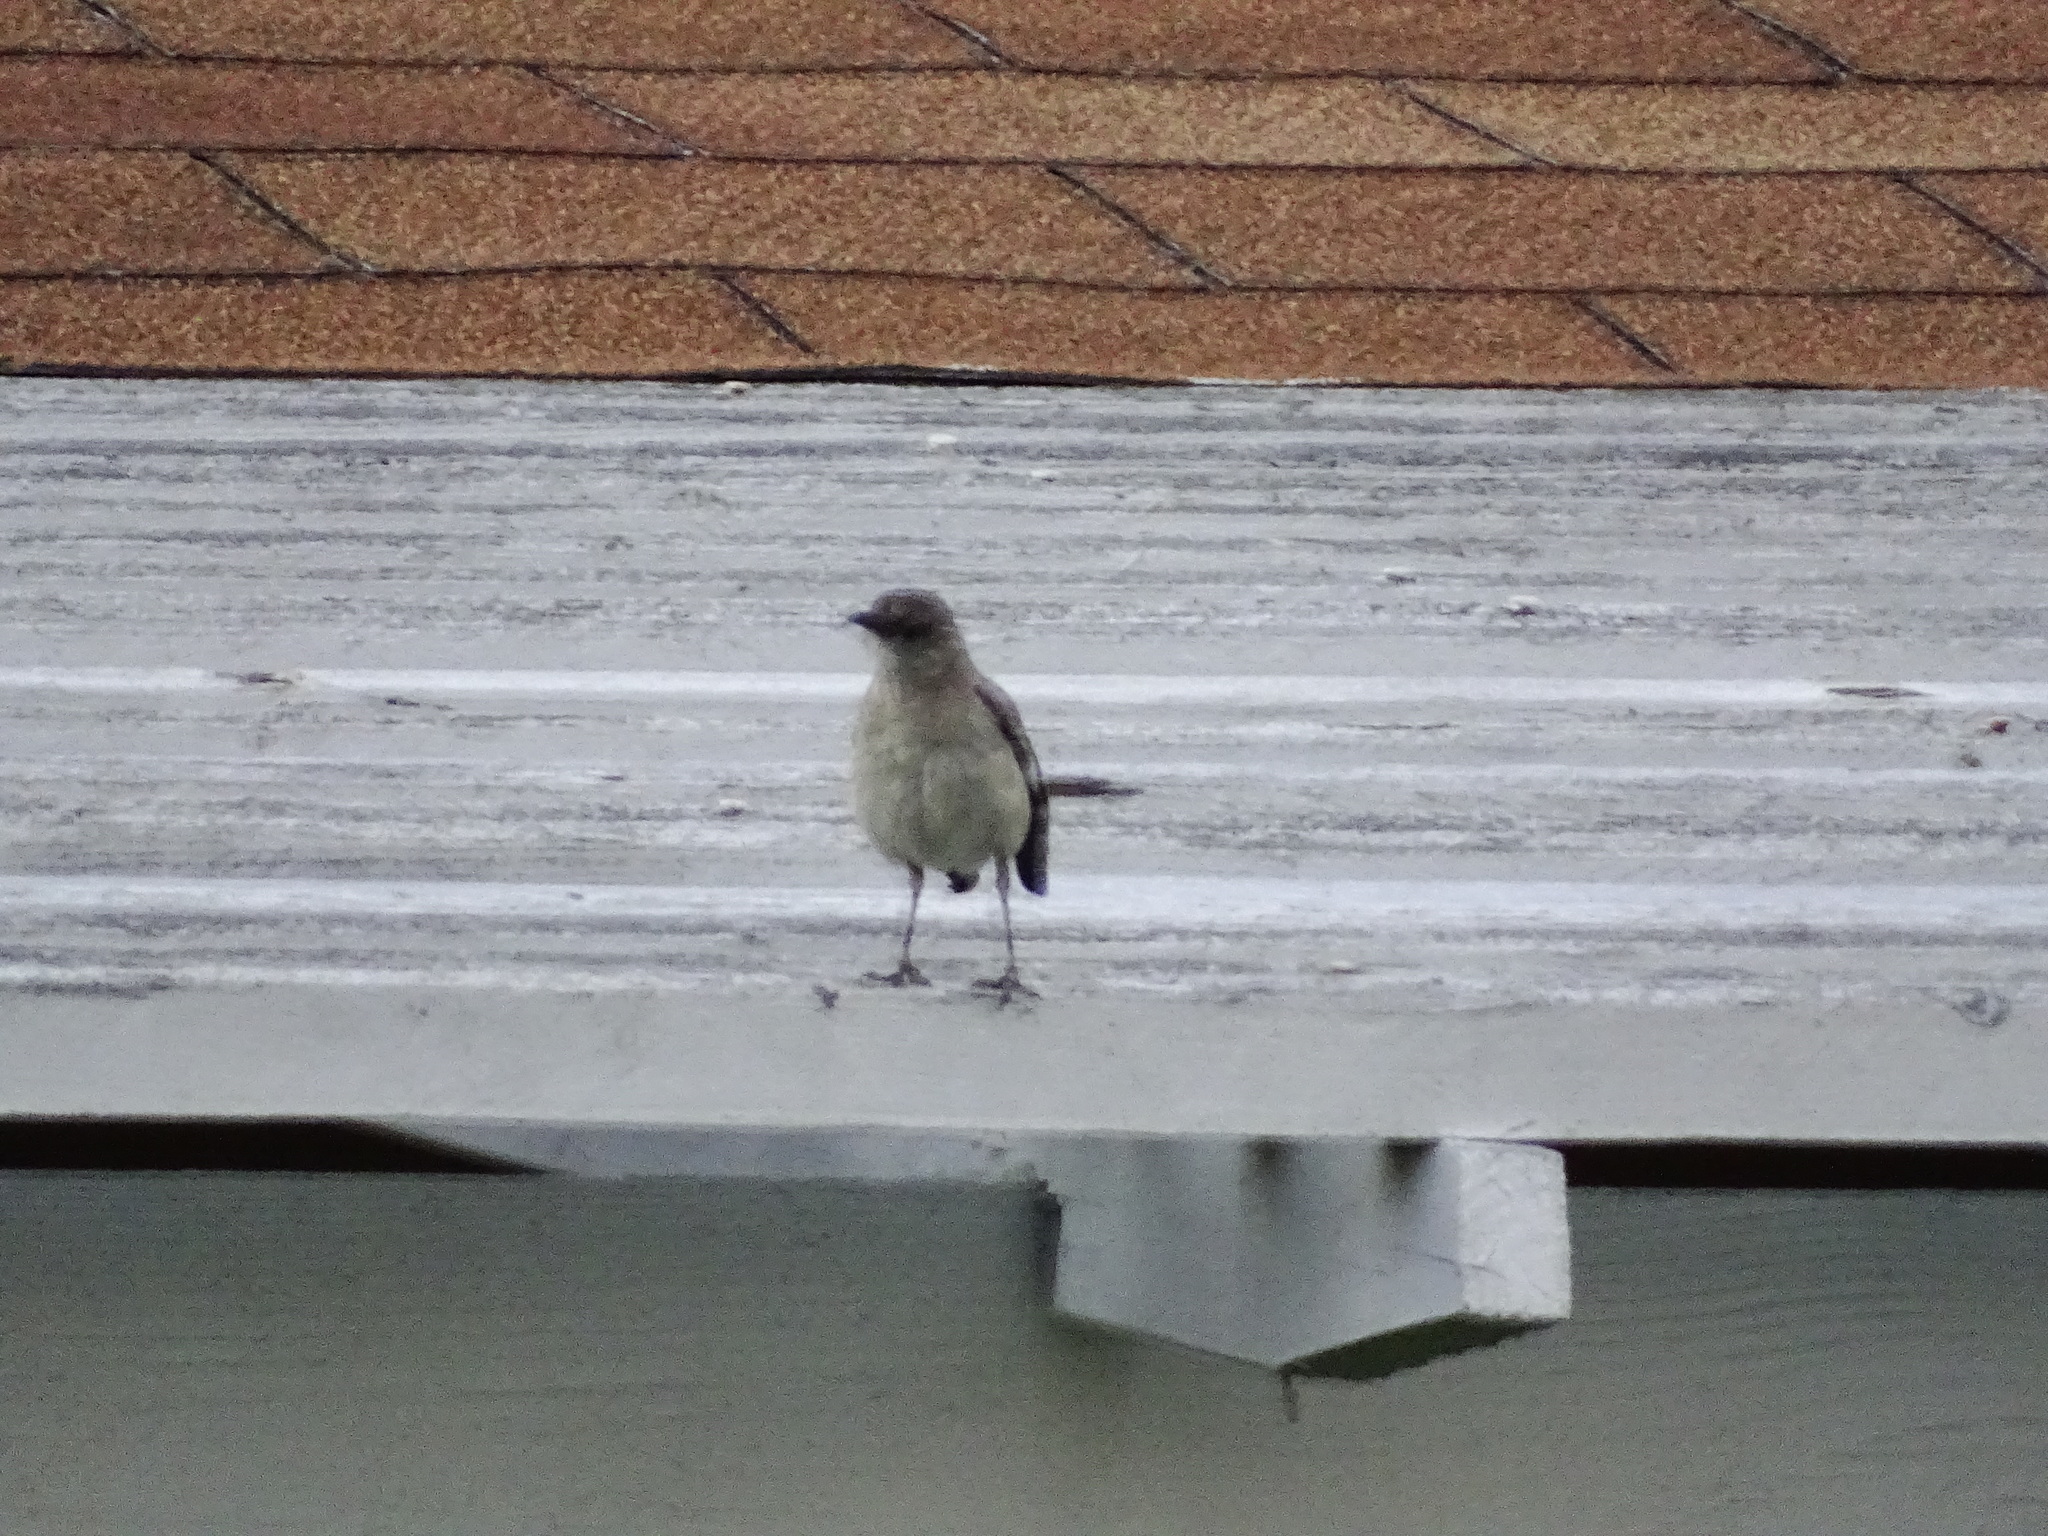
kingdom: Animalia
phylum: Chordata
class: Aves
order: Passeriformes
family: Mimidae
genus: Mimus
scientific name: Mimus polyglottos
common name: Northern mockingbird
